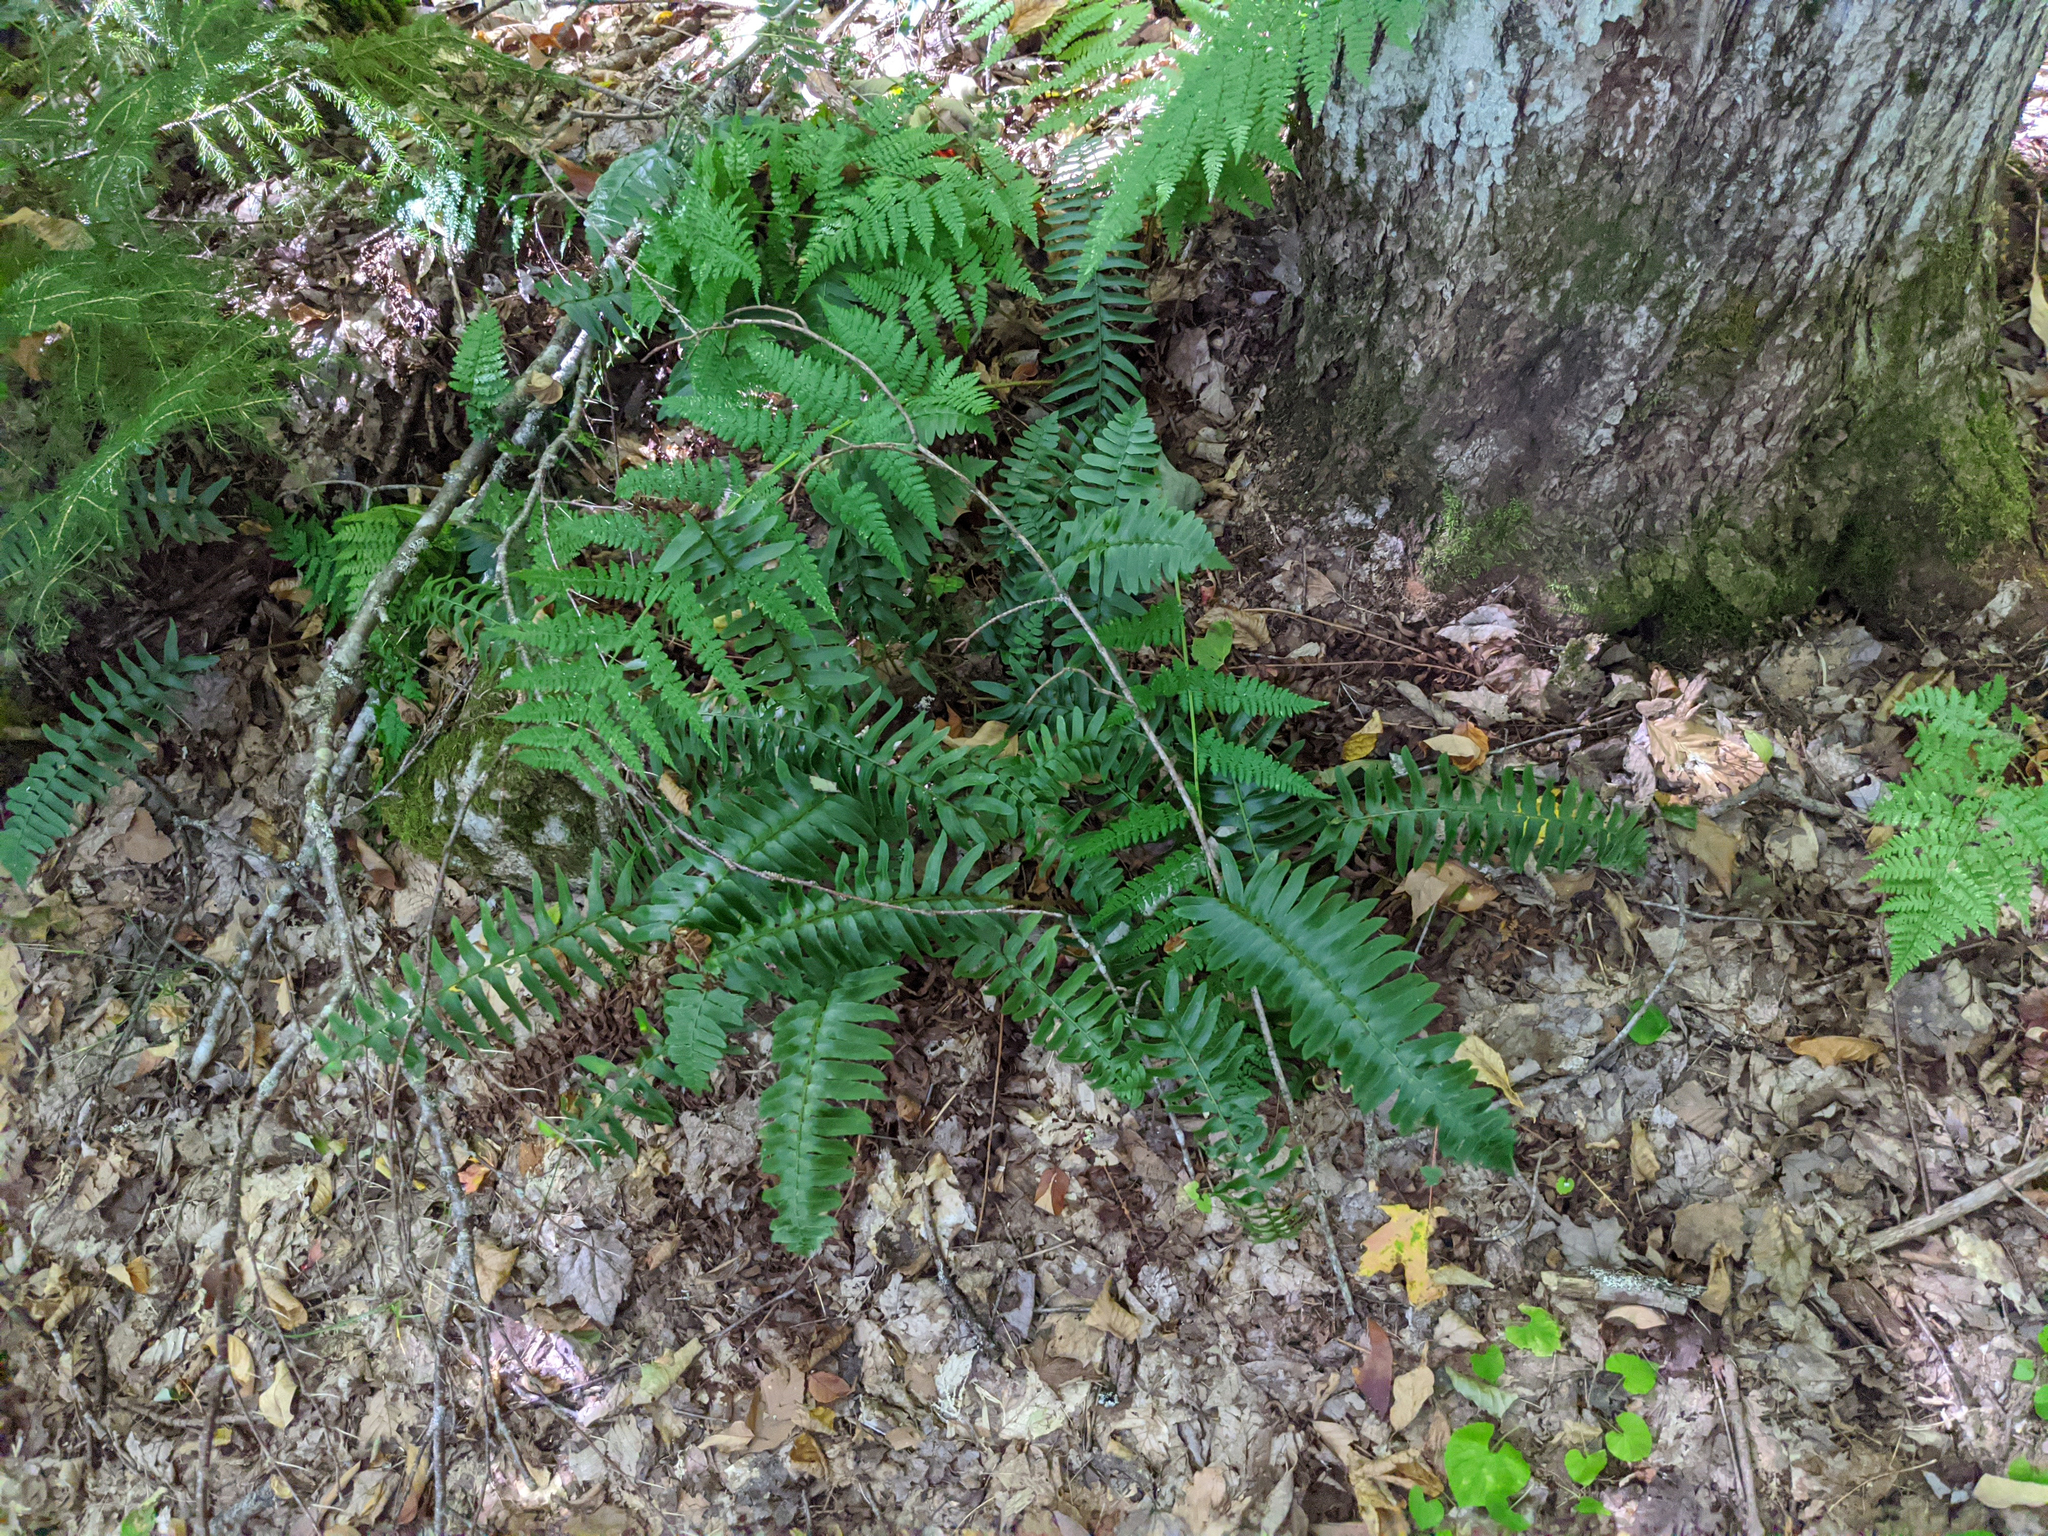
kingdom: Plantae
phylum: Tracheophyta
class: Polypodiopsida
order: Polypodiales
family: Dryopteridaceae
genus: Polystichum
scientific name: Polystichum acrostichoides
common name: Christmas fern
